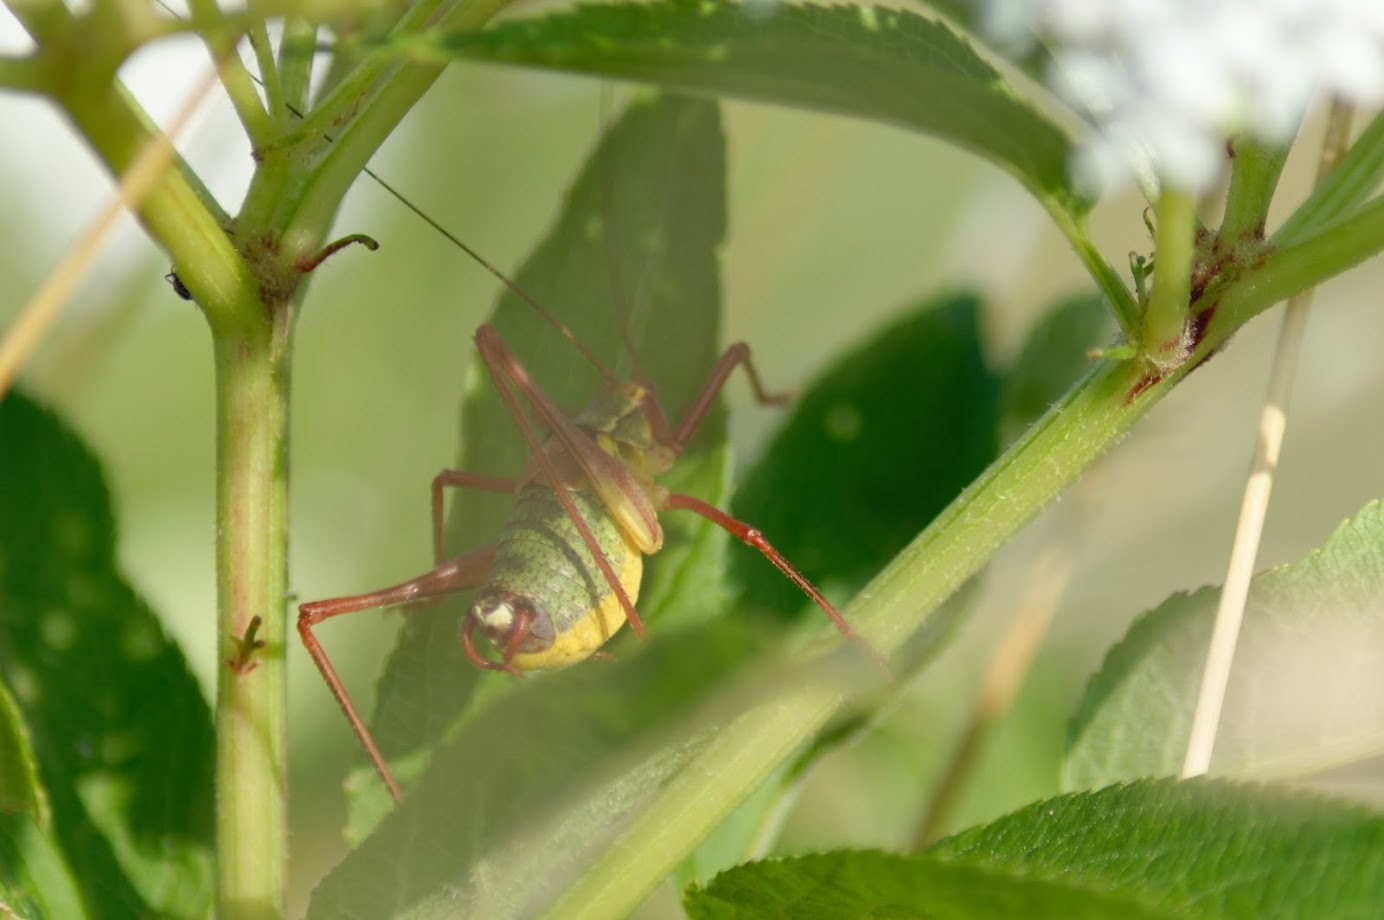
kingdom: Animalia
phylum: Arthropoda
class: Insecta
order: Orthoptera
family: Tettigoniidae
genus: Barbitistes
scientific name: Barbitistes serricauda
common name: Saw-tailed bush-cricket
